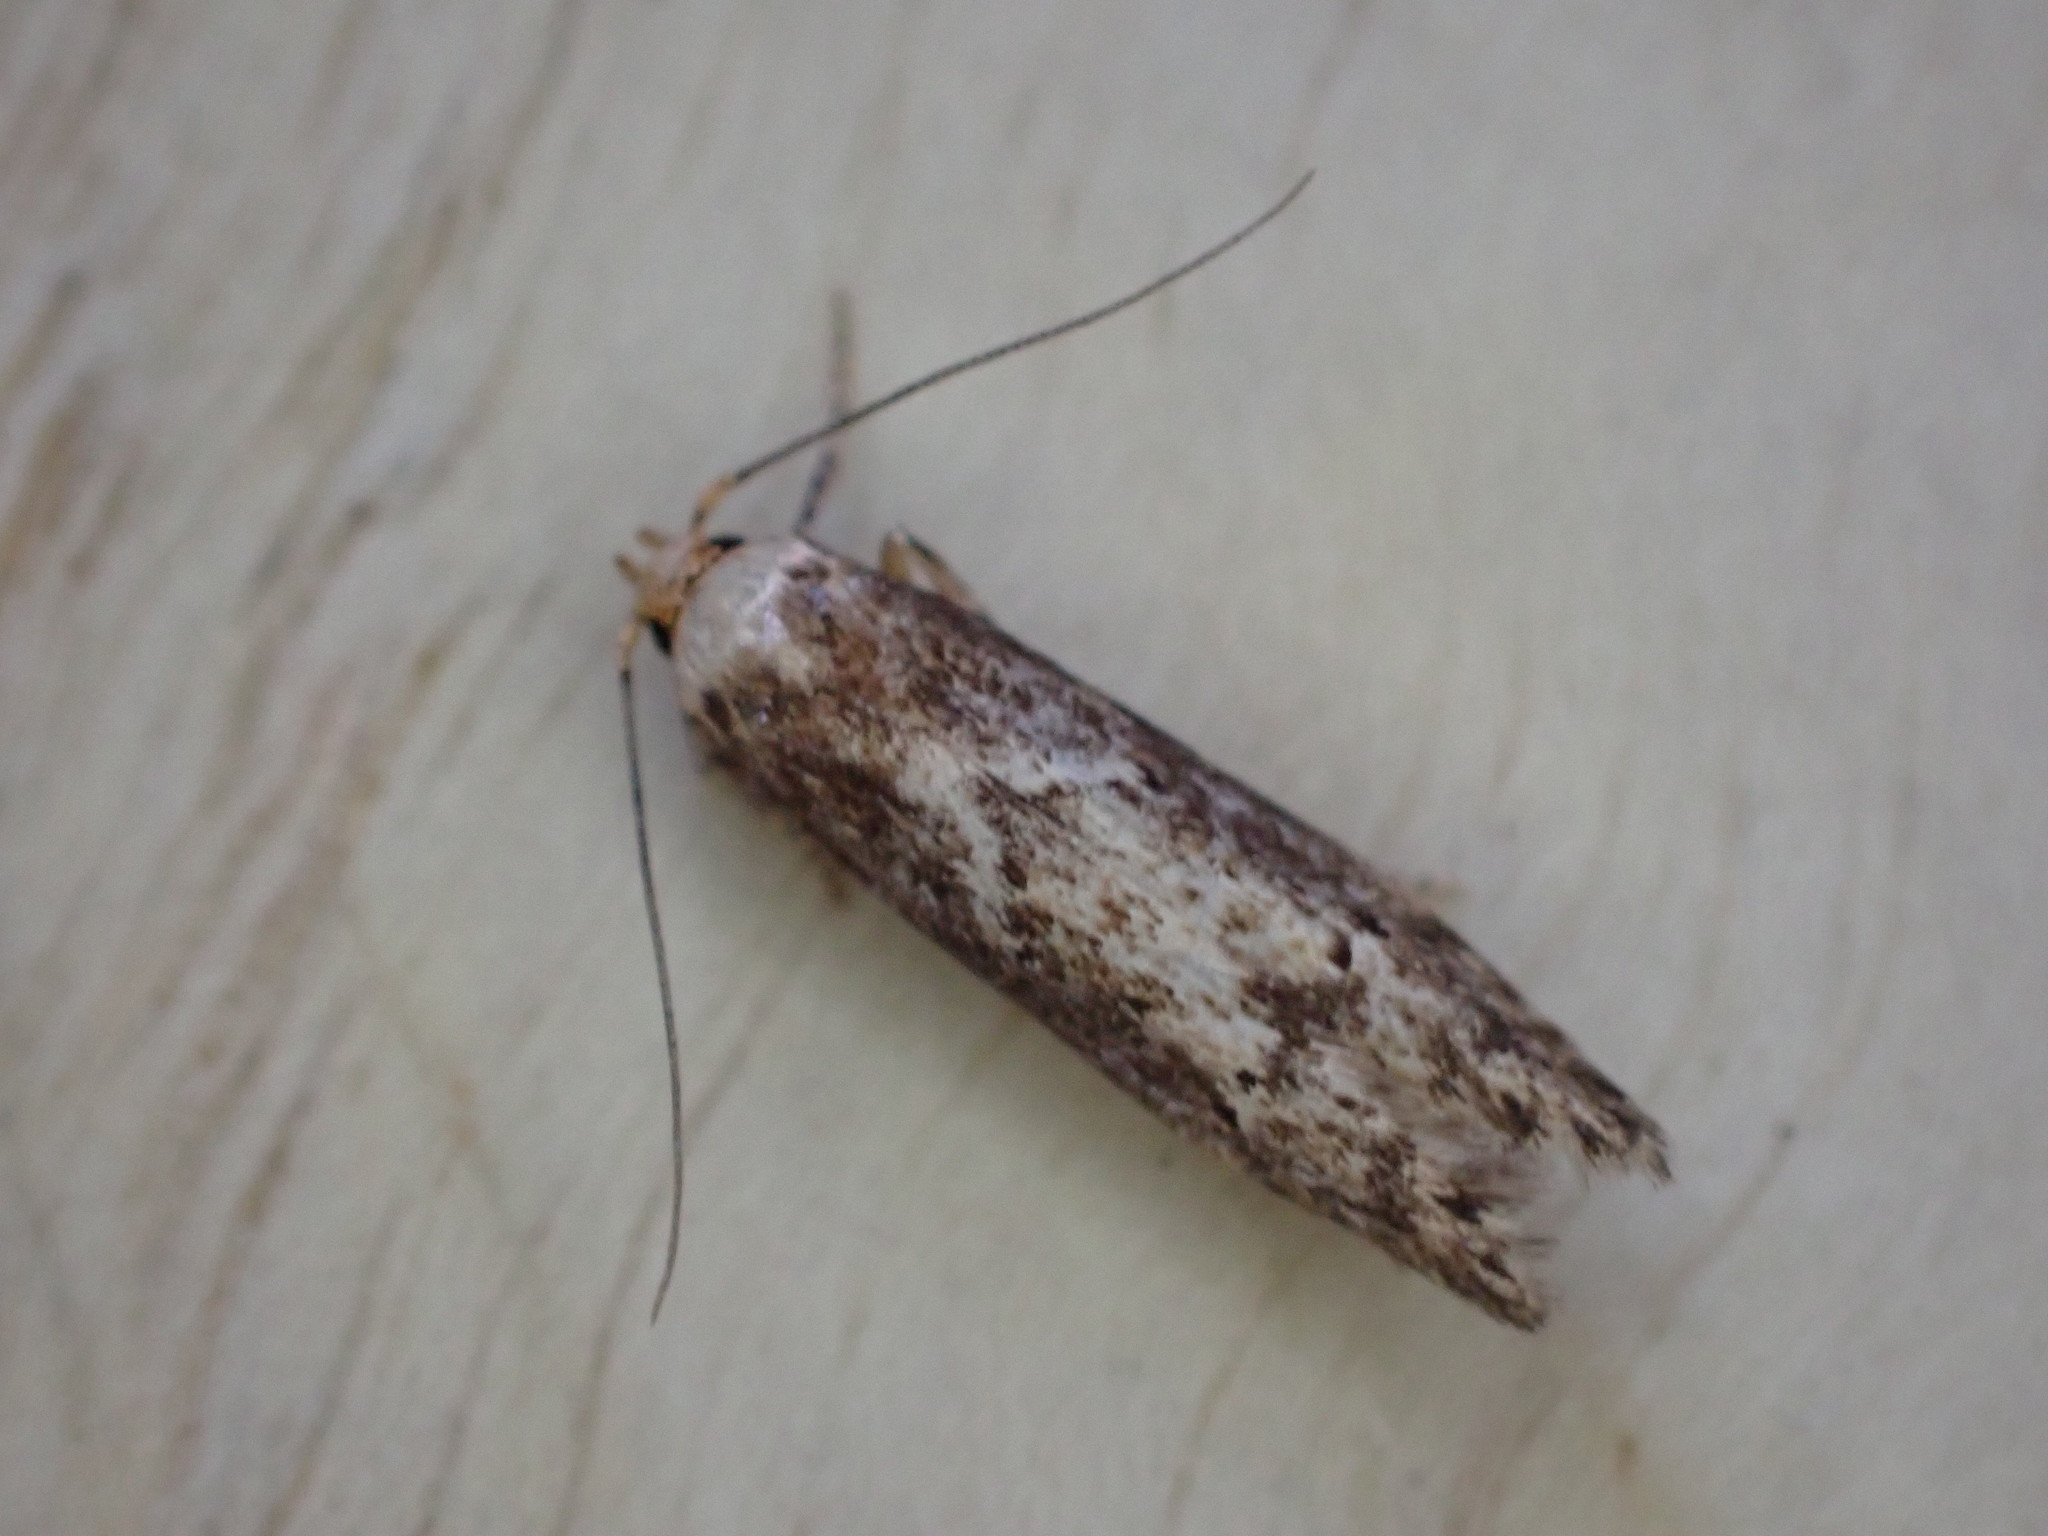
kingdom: Animalia
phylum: Arthropoda
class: Insecta
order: Lepidoptera
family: Blastobasidae
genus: Blastobasis
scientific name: Blastobasis adustella
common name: Dingy dowd
